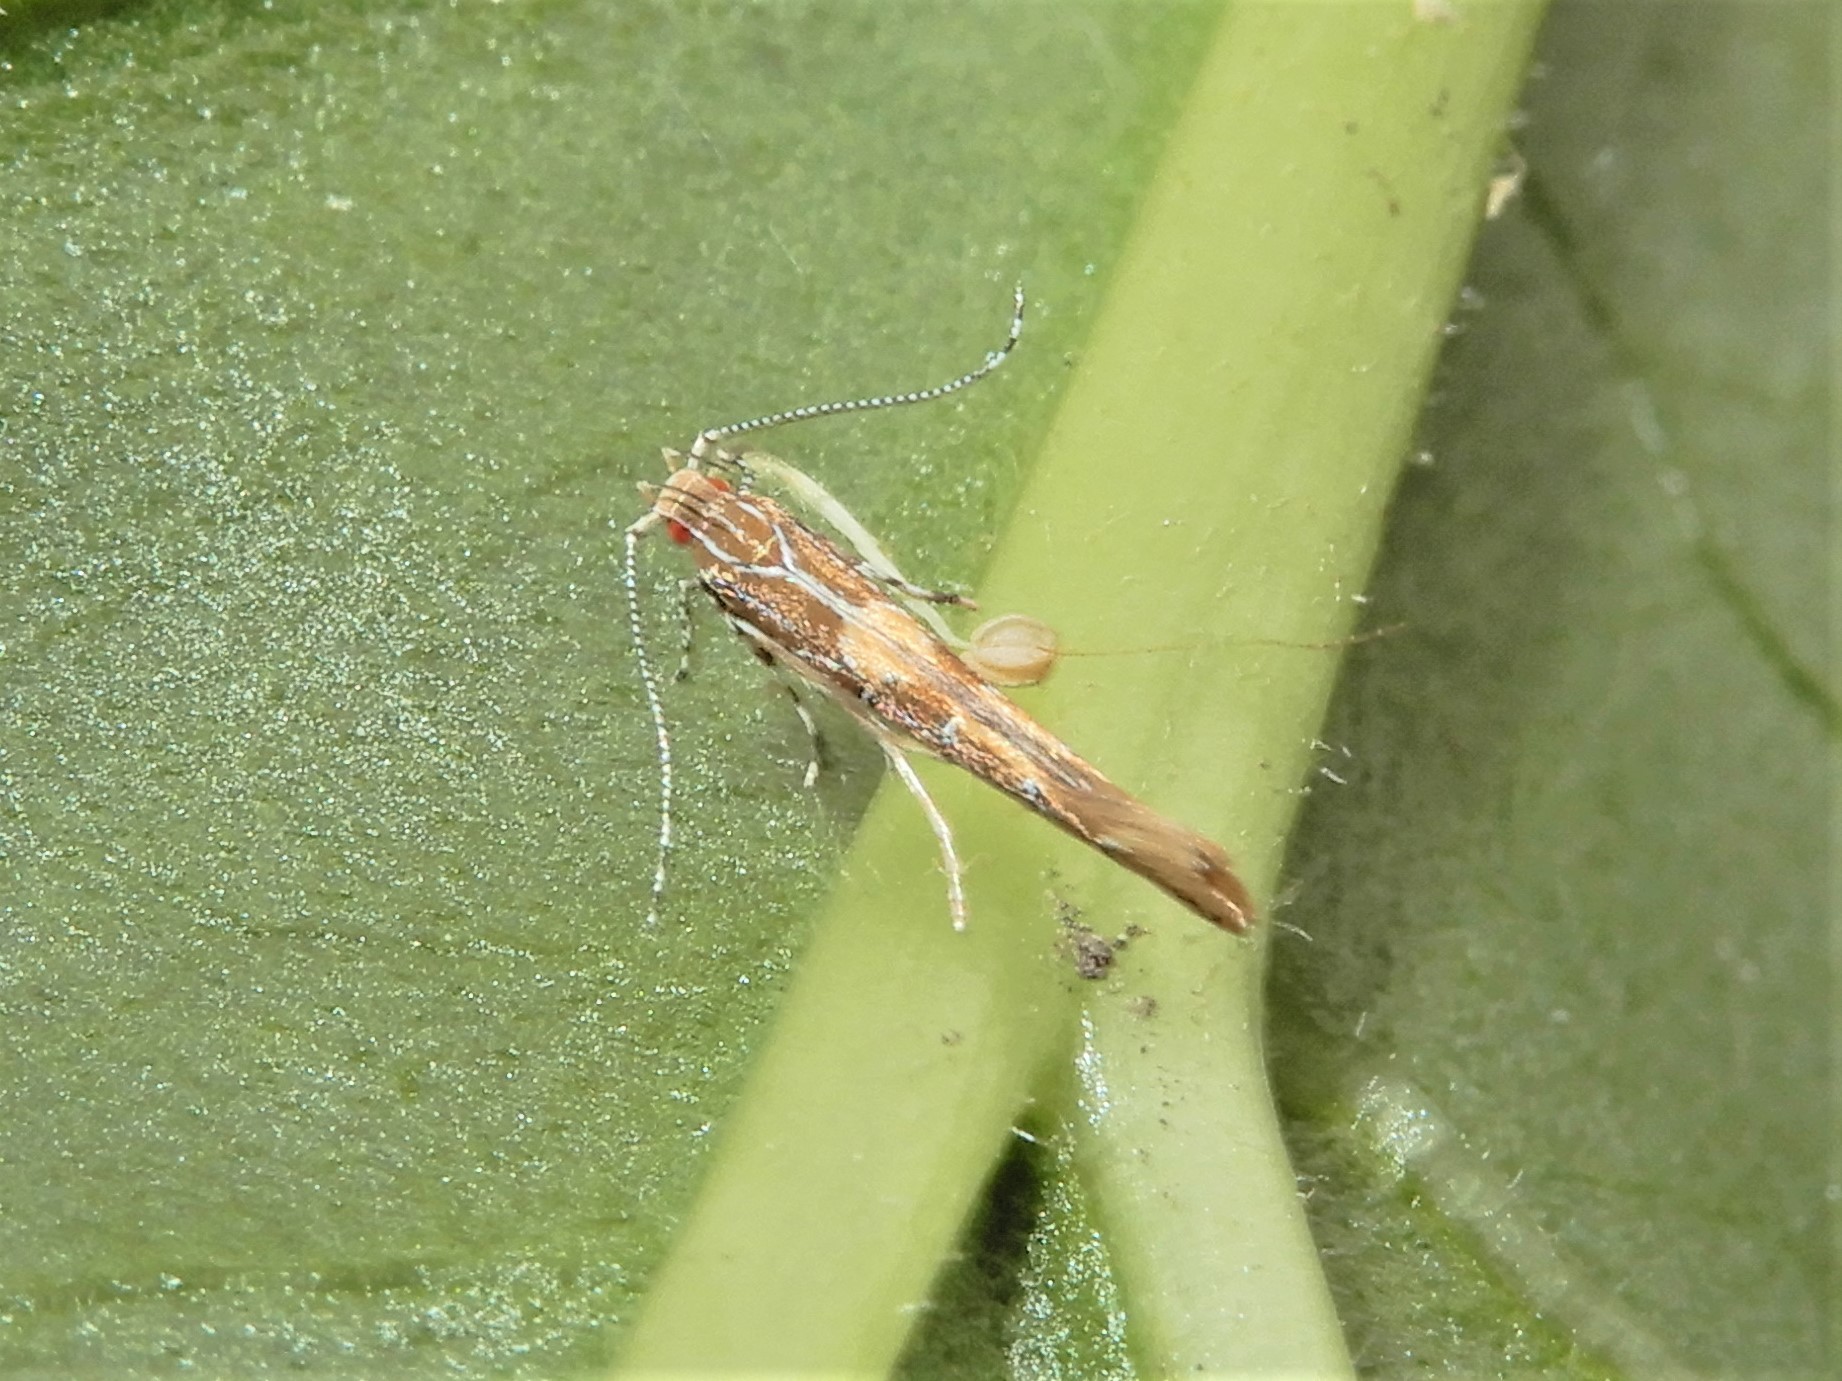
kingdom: Animalia
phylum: Arthropoda
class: Insecta
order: Lepidoptera
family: Cosmopterigidae
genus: Pyroderces
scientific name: Pyroderces apparitella
